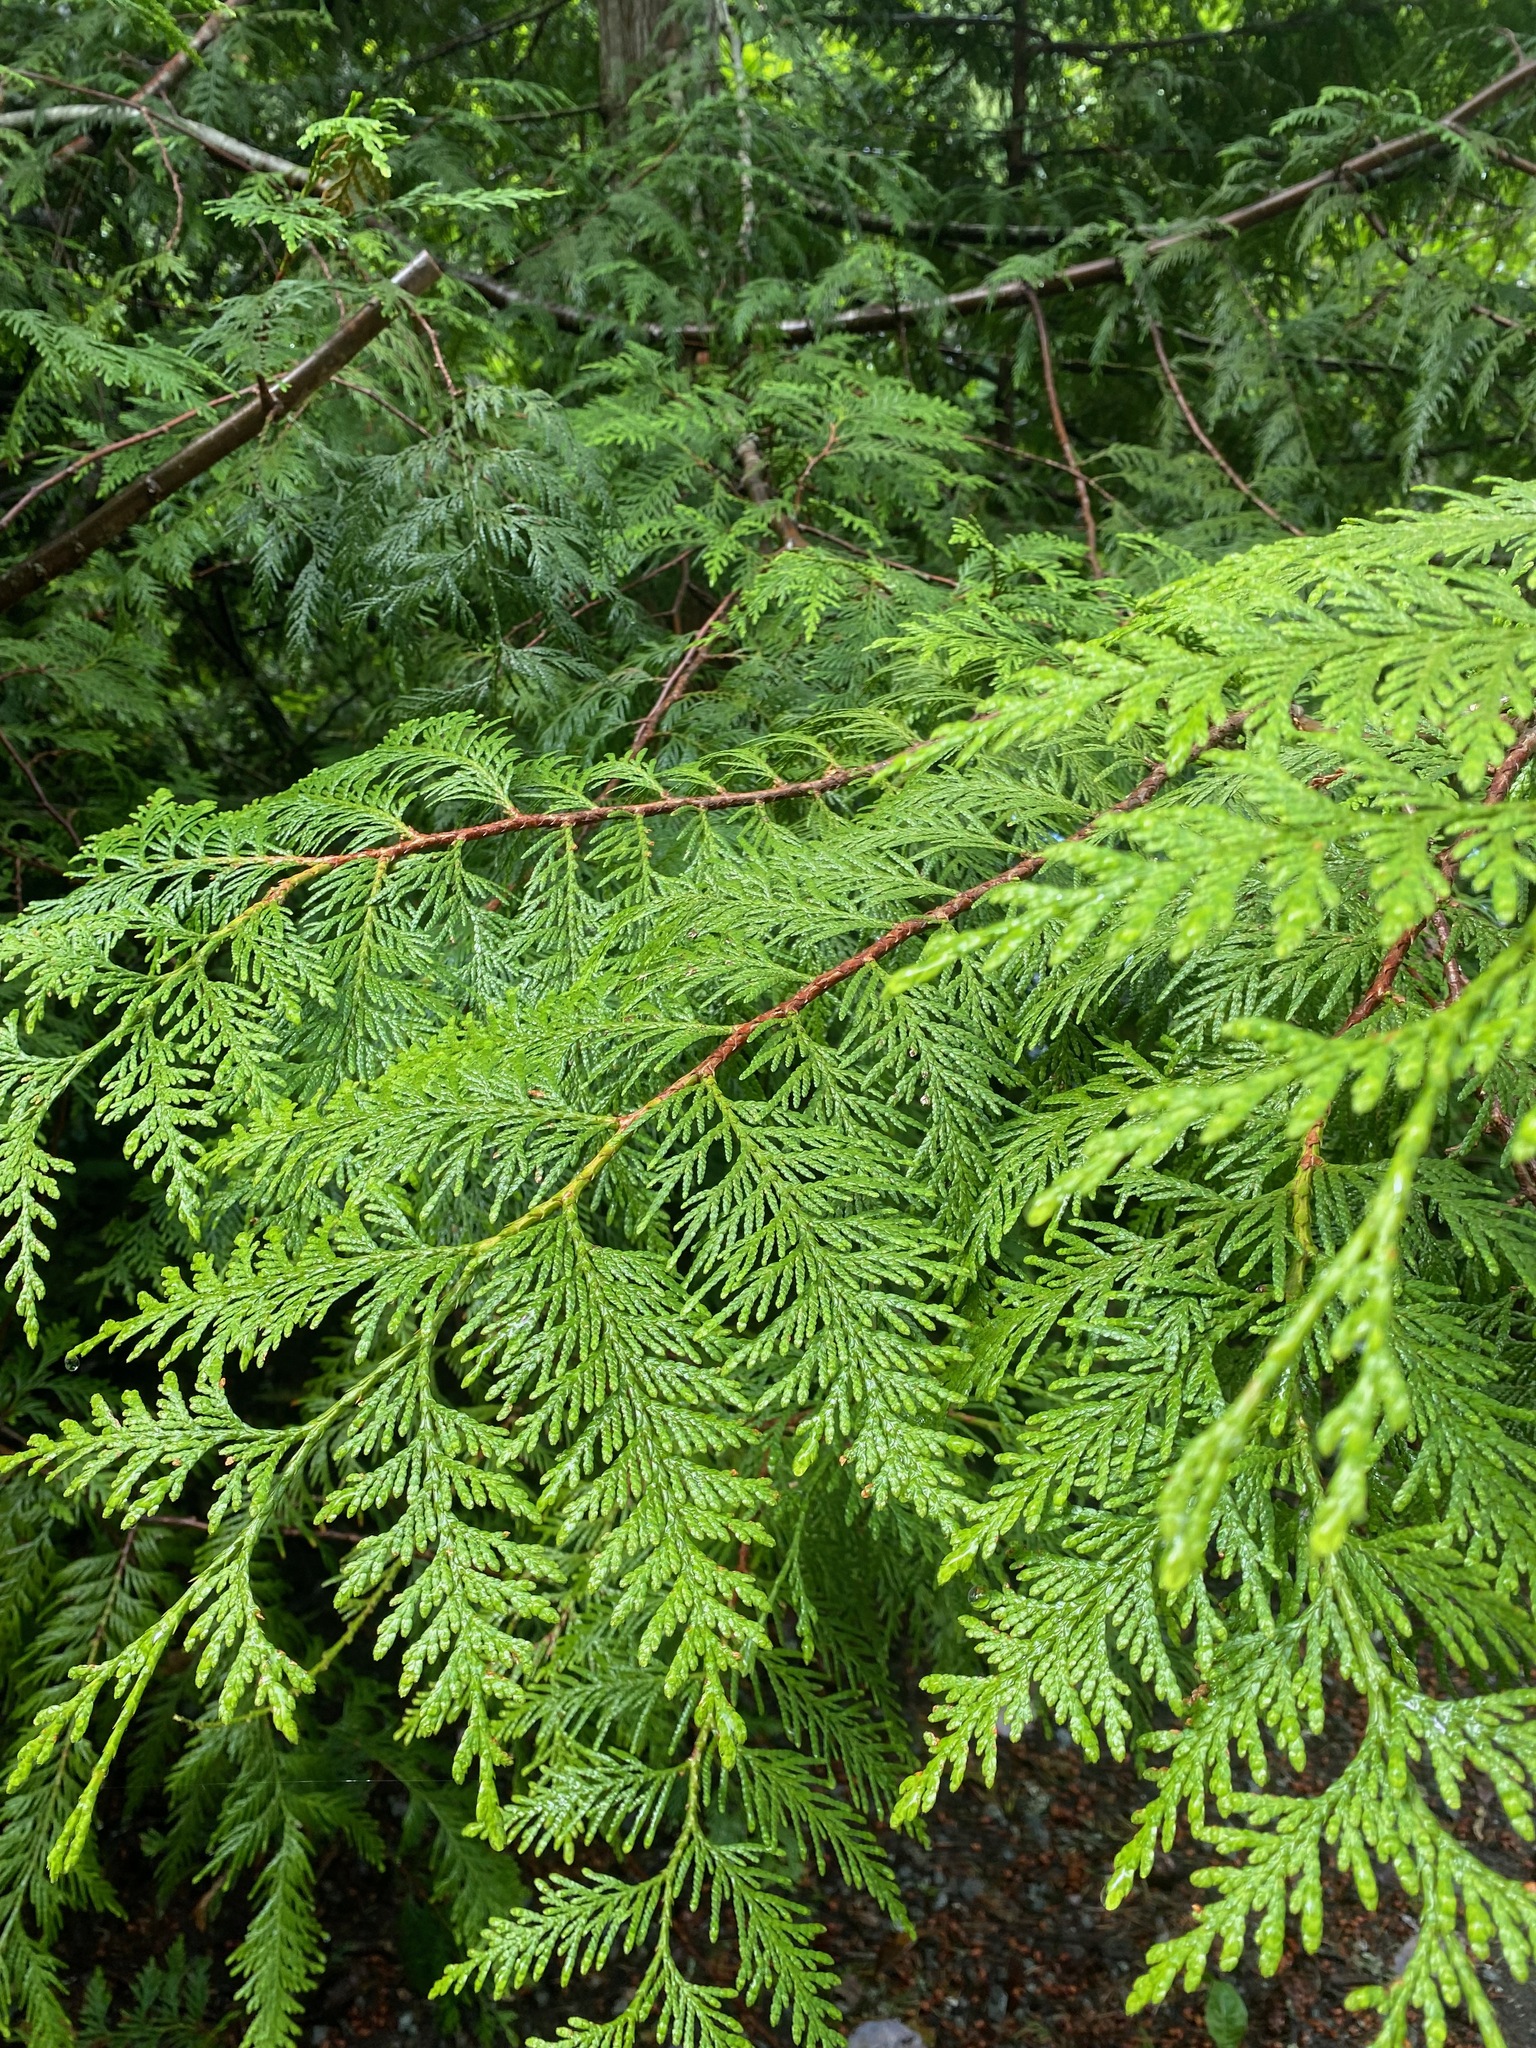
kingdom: Plantae
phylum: Tracheophyta
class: Pinopsida
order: Pinales
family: Cupressaceae
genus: Thuja
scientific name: Thuja plicata
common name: Western red-cedar
